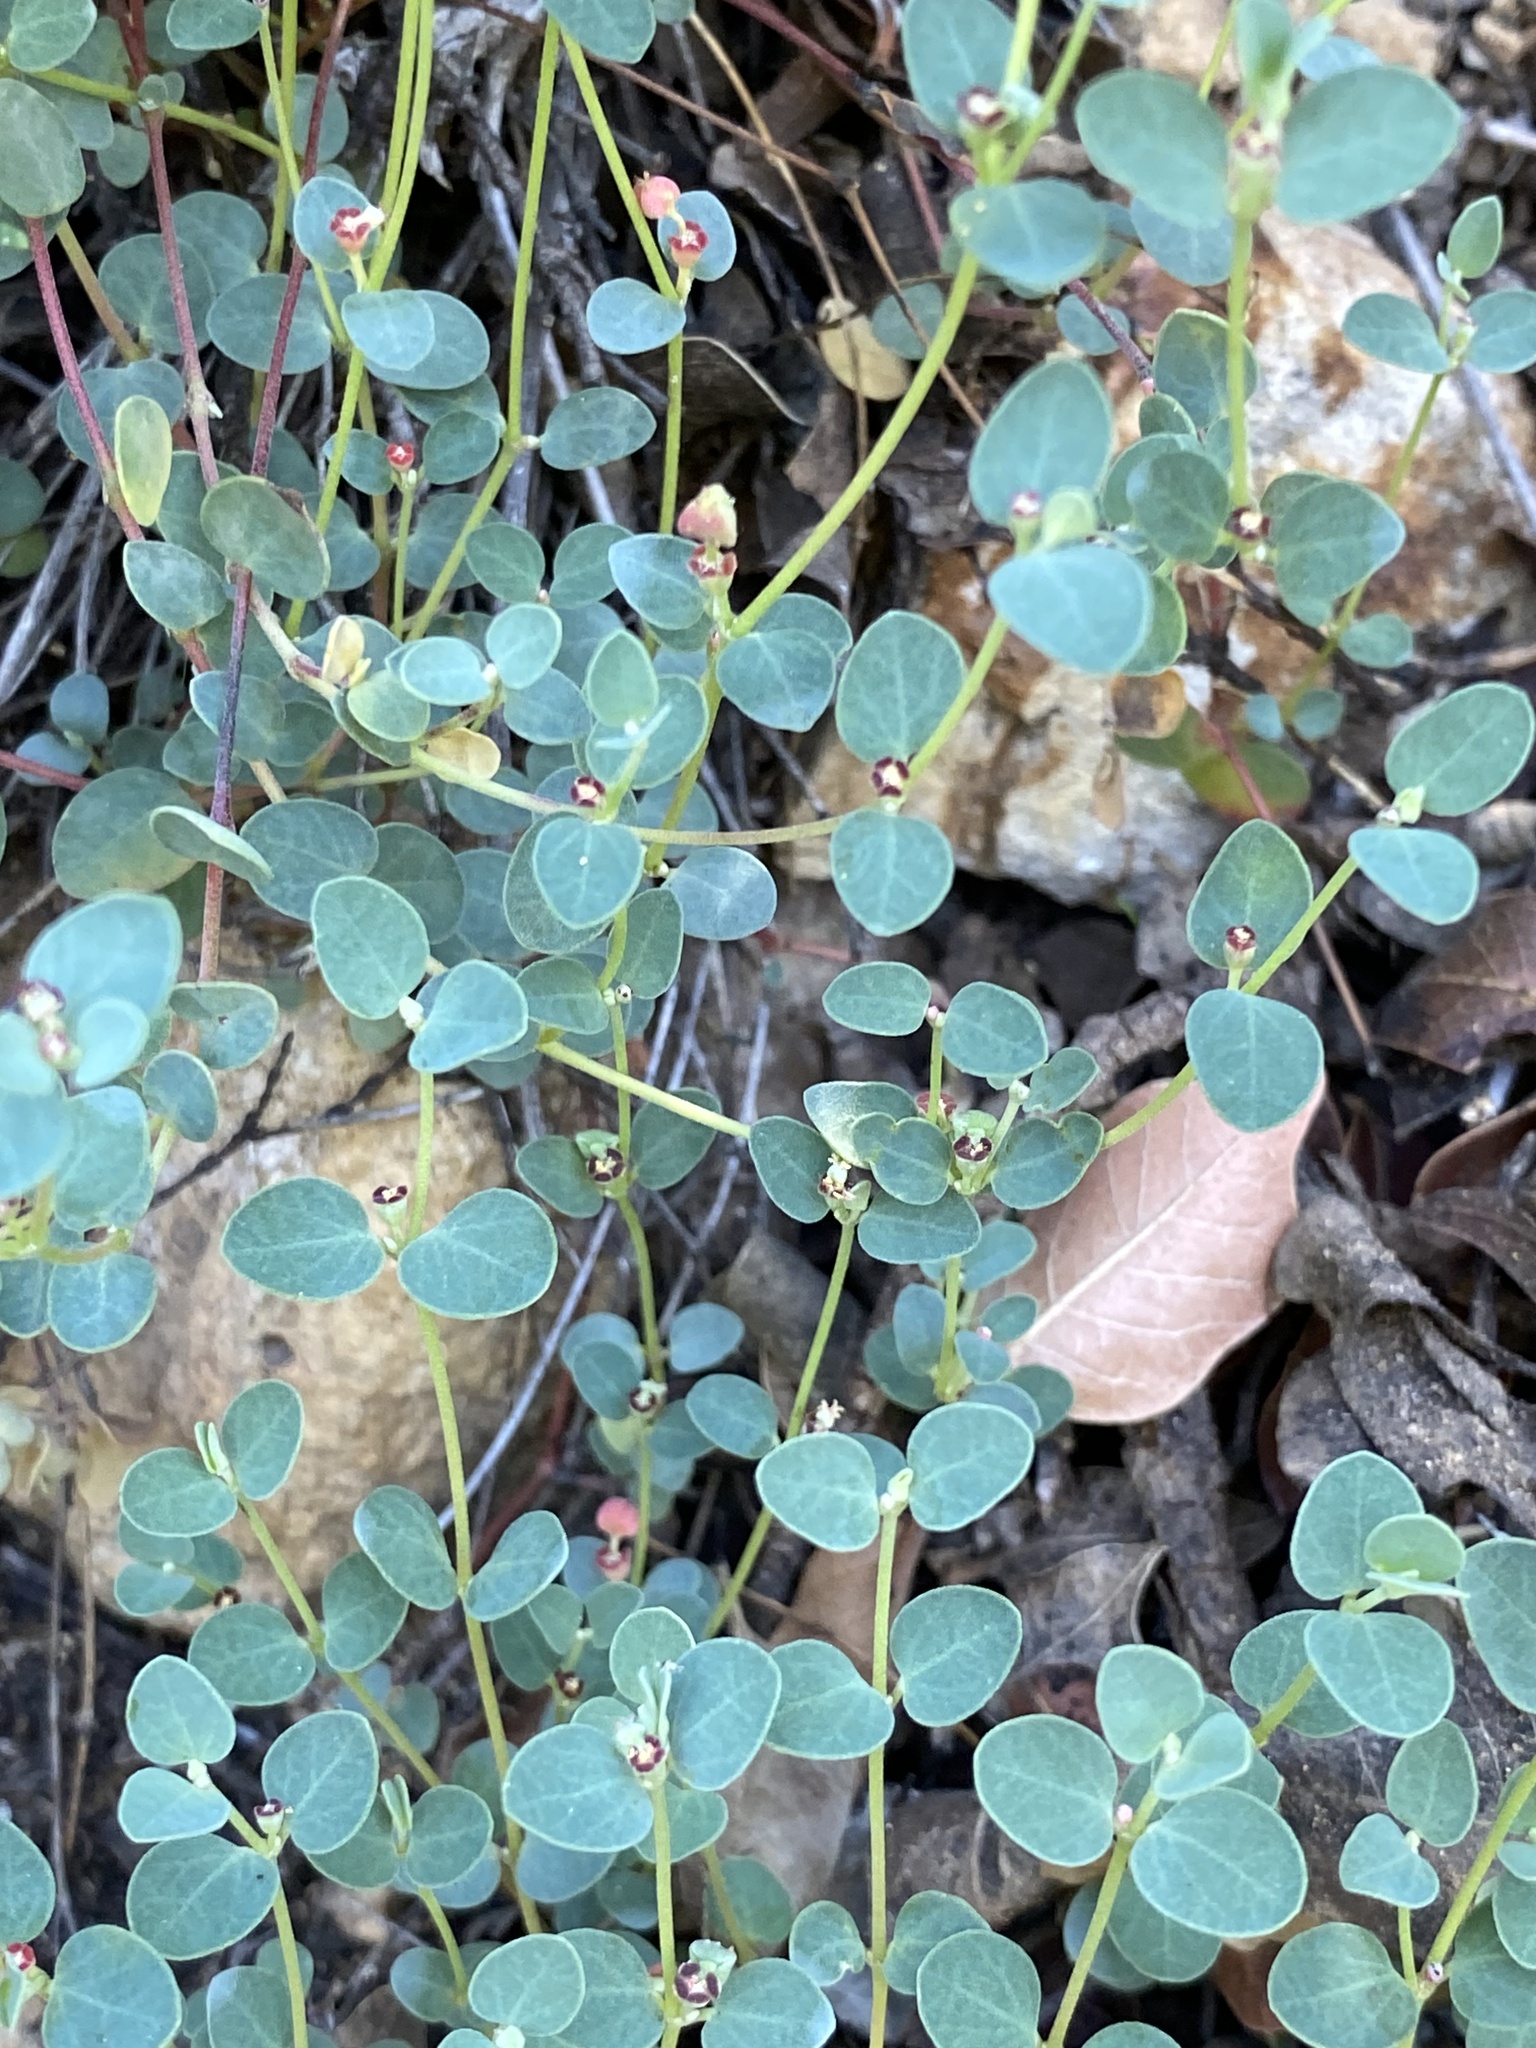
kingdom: Plantae
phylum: Tracheophyta
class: Magnoliopsida
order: Malpighiales
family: Euphorbiaceae
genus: Euphorbia
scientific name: Euphorbia cinerascens
